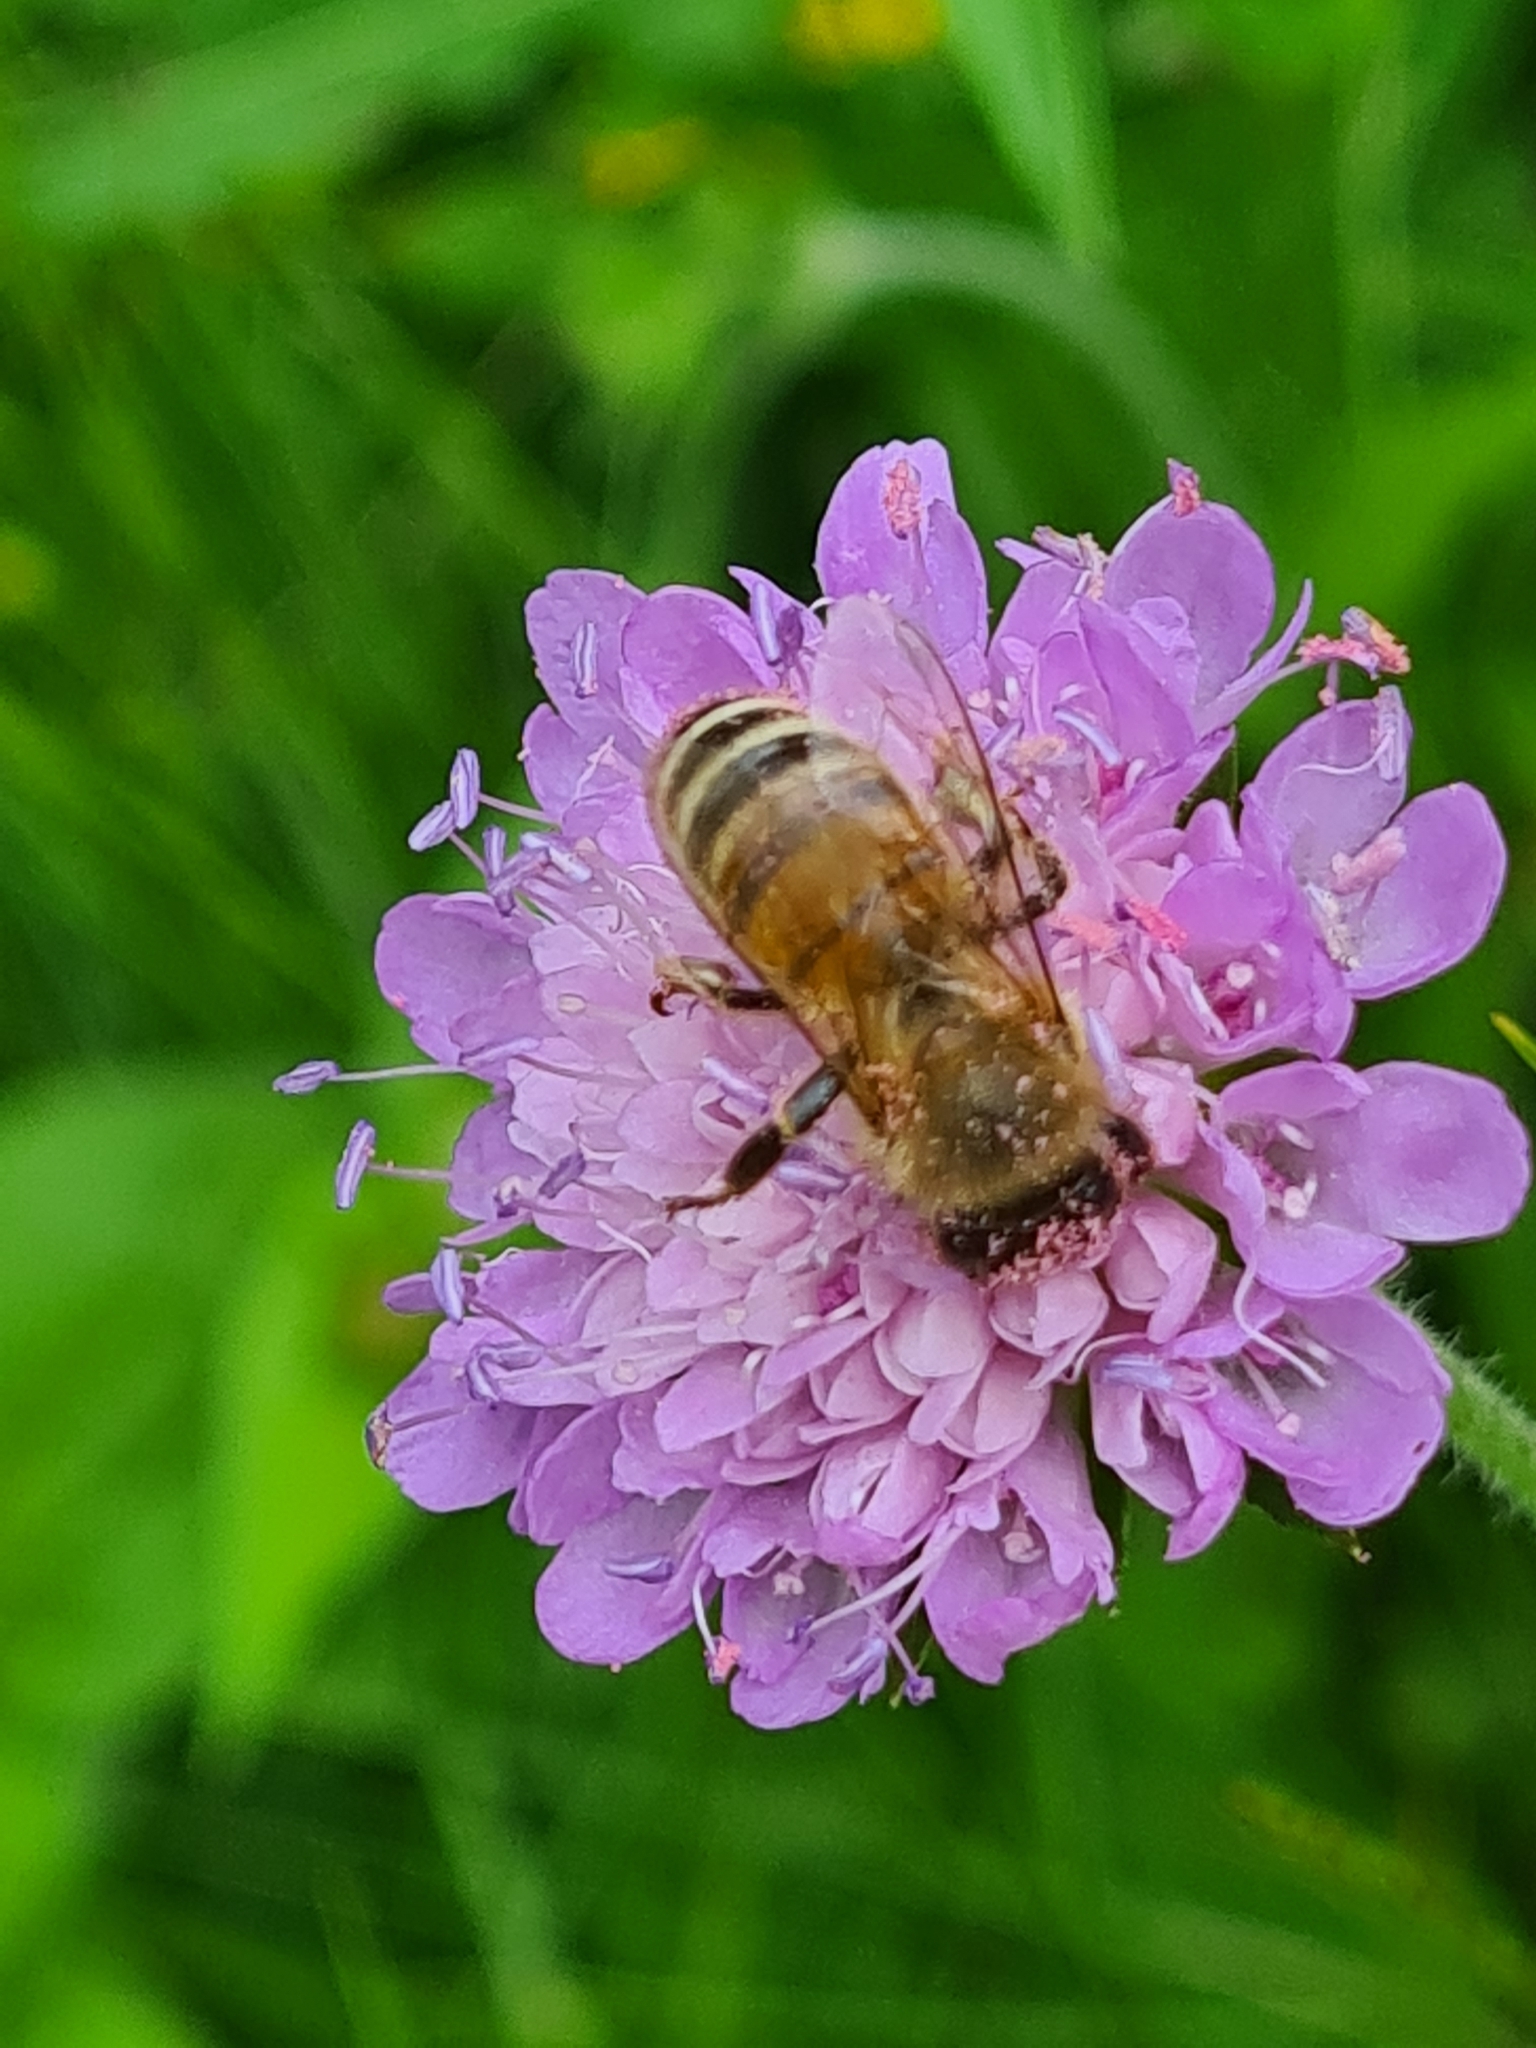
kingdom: Animalia
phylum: Arthropoda
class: Insecta
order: Hymenoptera
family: Apidae
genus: Apis
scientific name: Apis mellifera
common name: Honey bee
